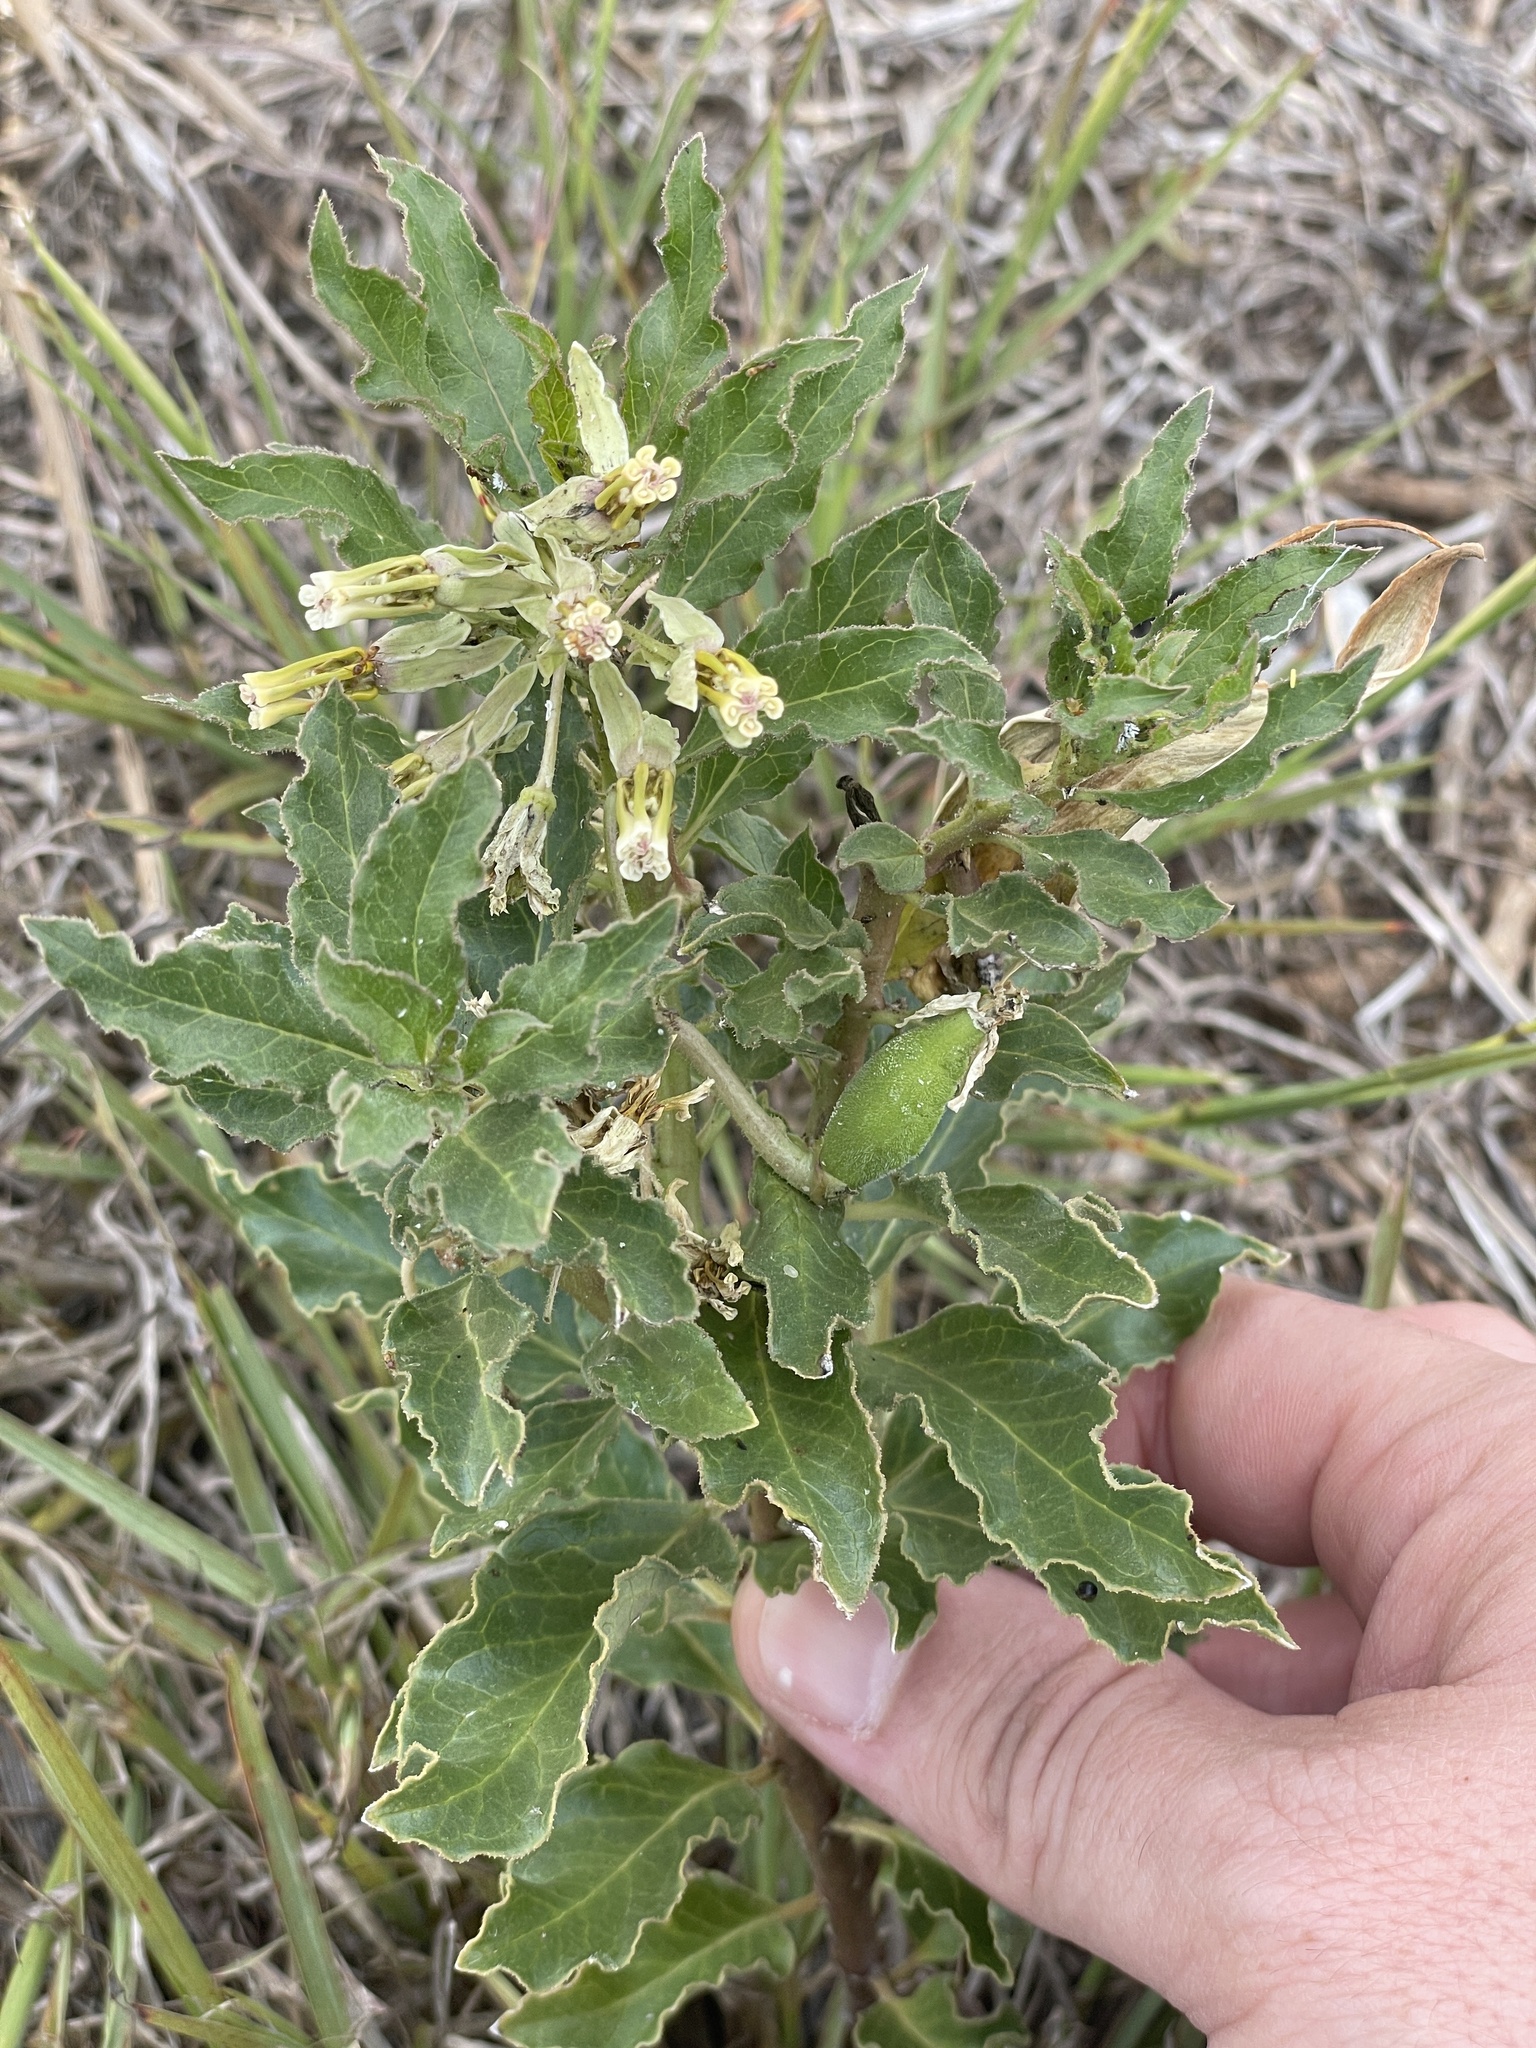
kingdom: Plantae
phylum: Tracheophyta
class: Magnoliopsida
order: Gentianales
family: Apocynaceae
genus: Asclepias
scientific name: Asclepias oenotheroides
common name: Zizotes milkweed
